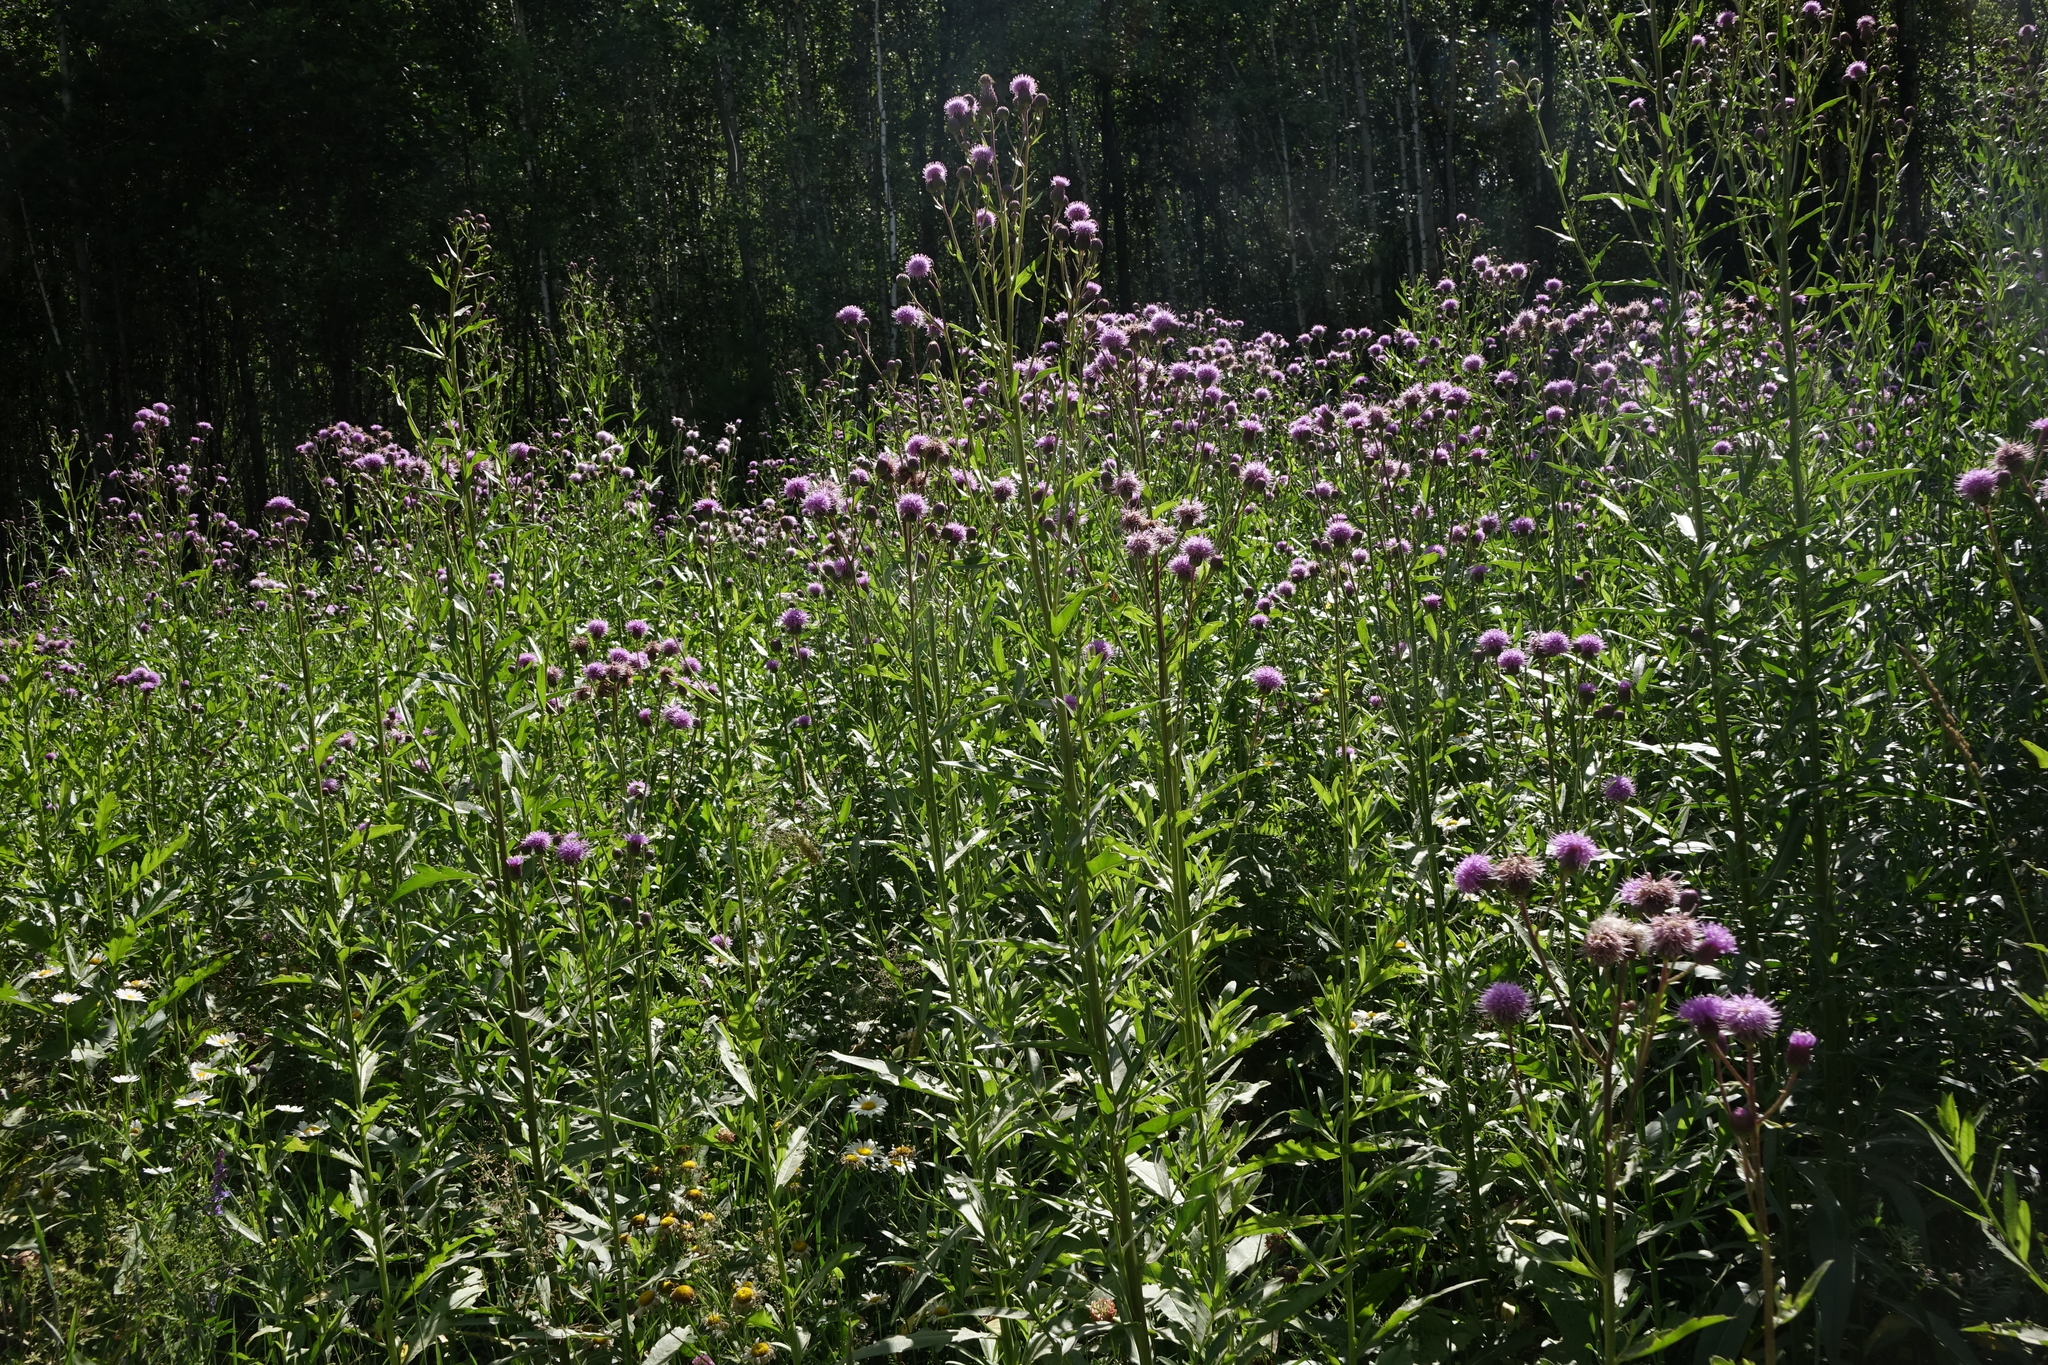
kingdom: Plantae
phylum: Tracheophyta
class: Magnoliopsida
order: Asterales
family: Asteraceae
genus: Cirsium
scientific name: Cirsium arvense
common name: Creeping thistle
